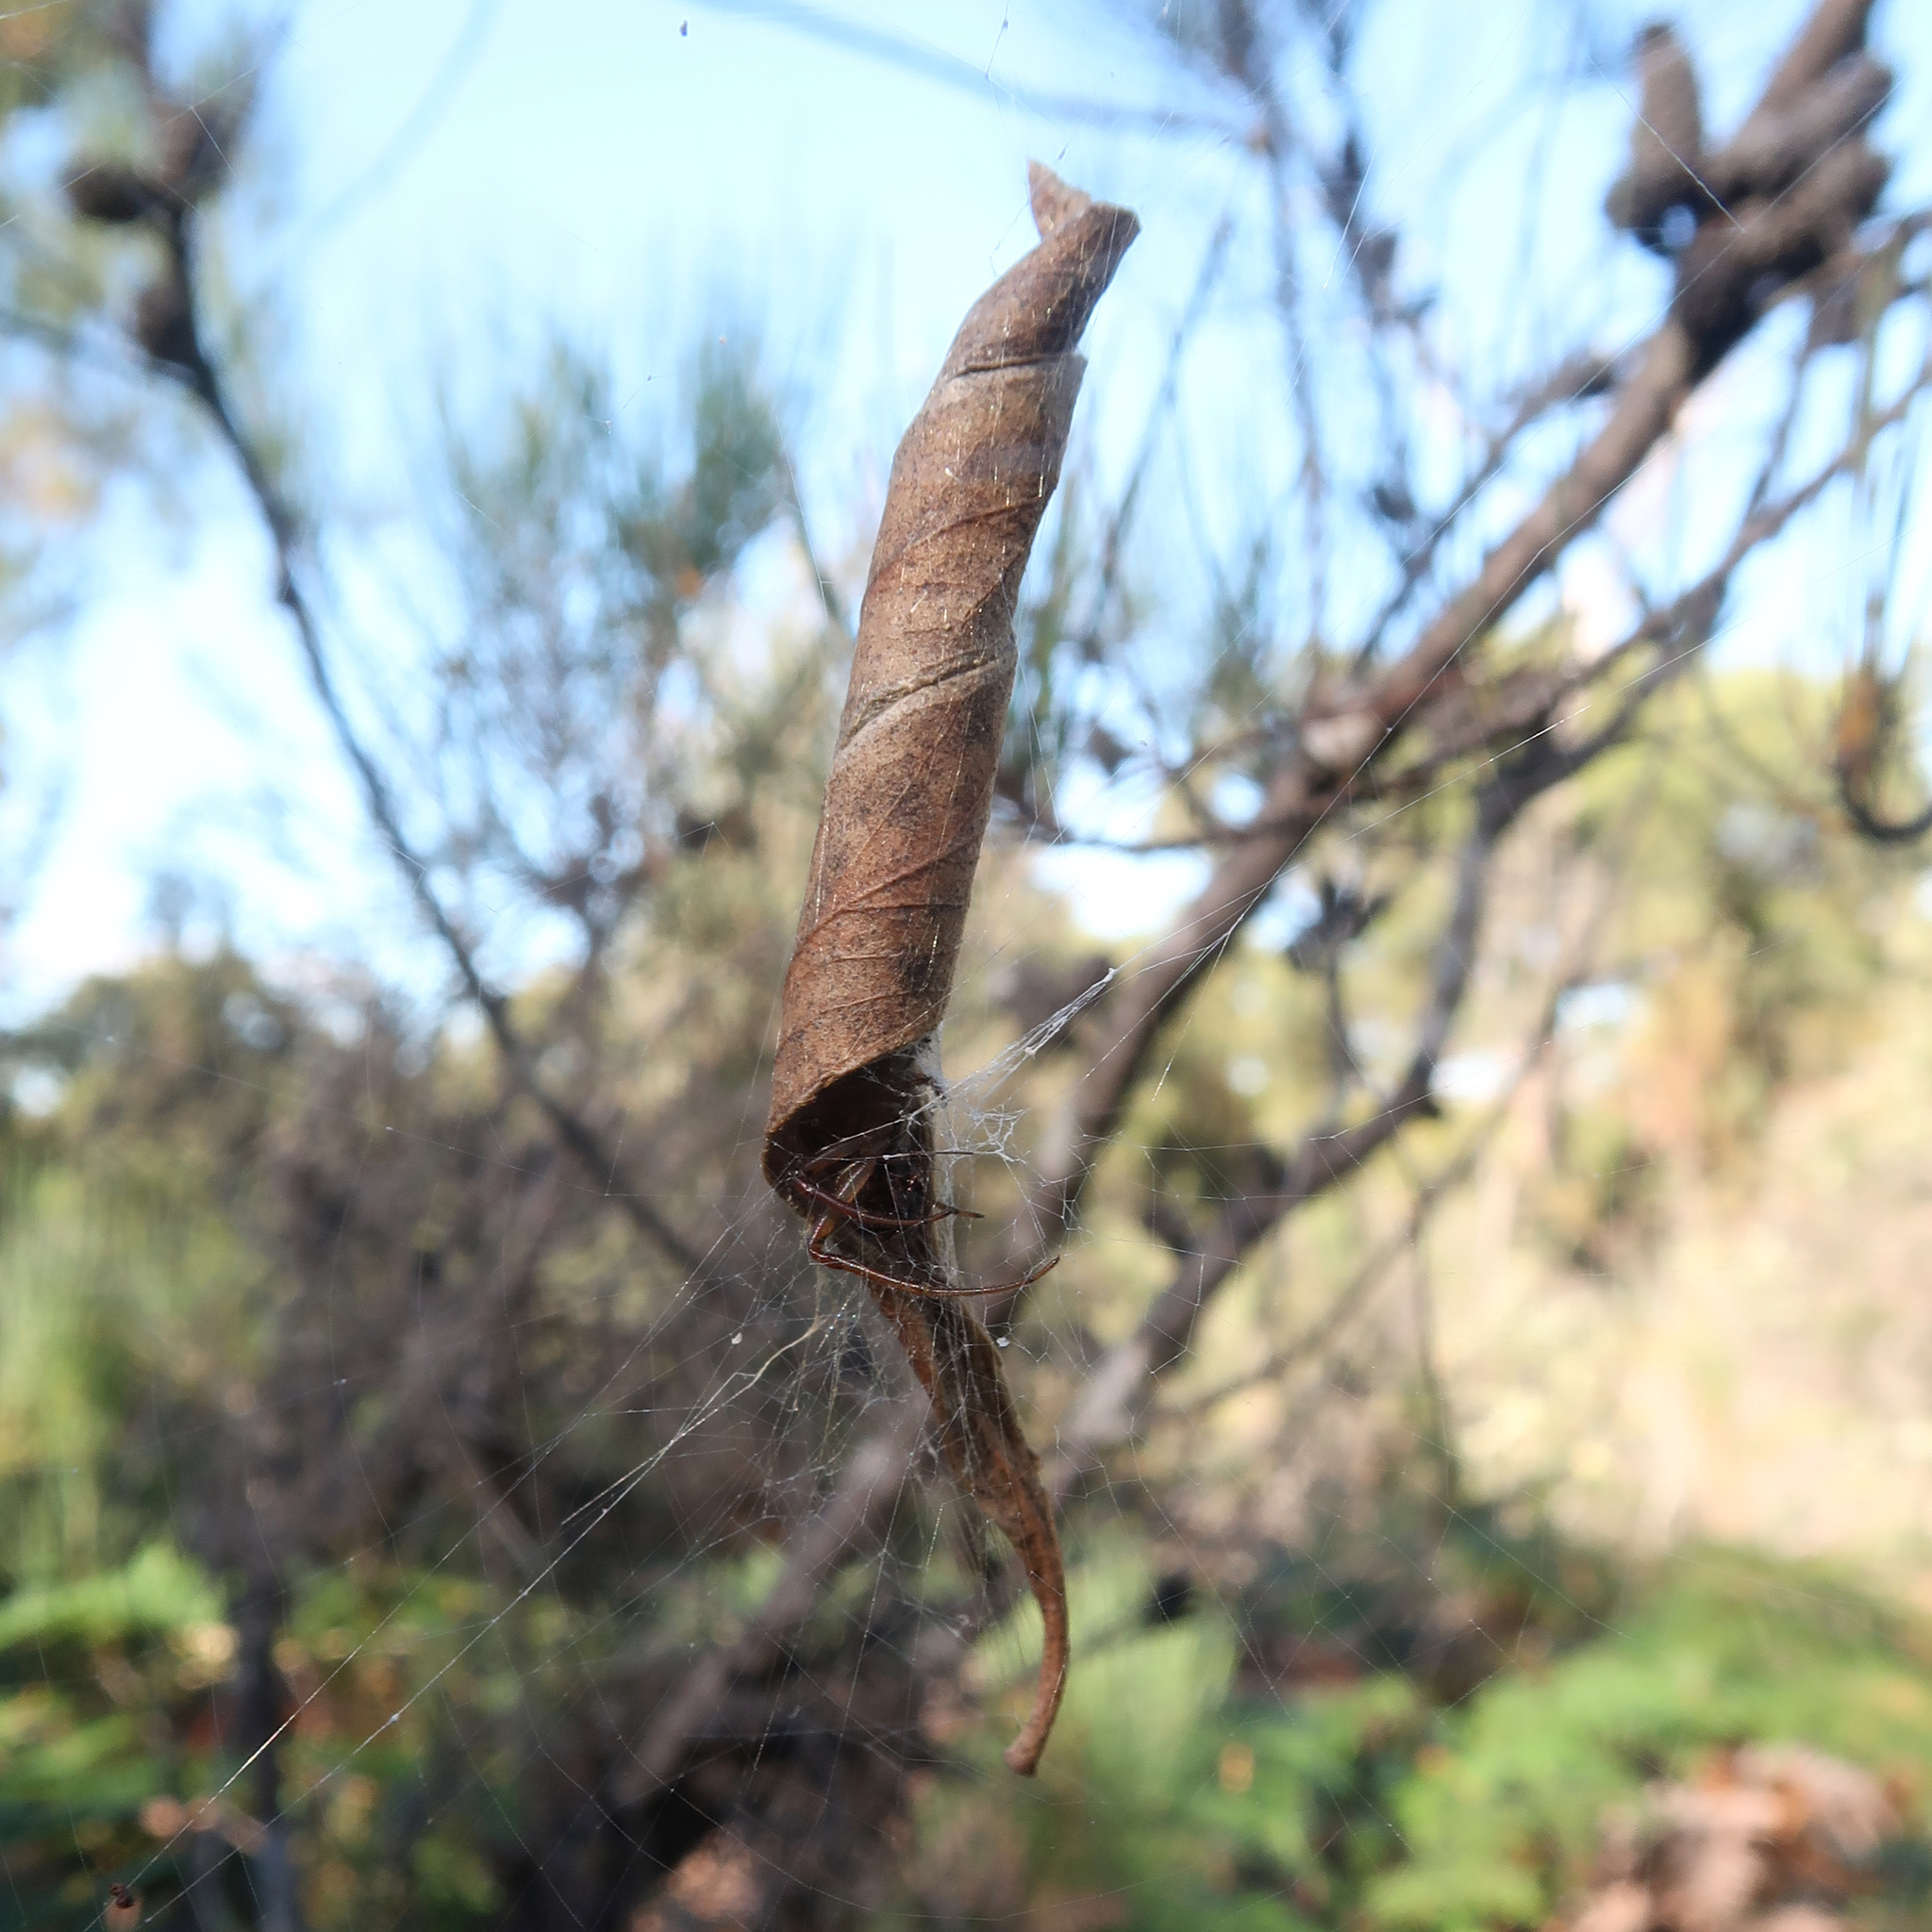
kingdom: Animalia
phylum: Arthropoda
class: Arachnida
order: Araneae
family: Araneidae
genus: Phonognatha
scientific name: Phonognatha graeffei
